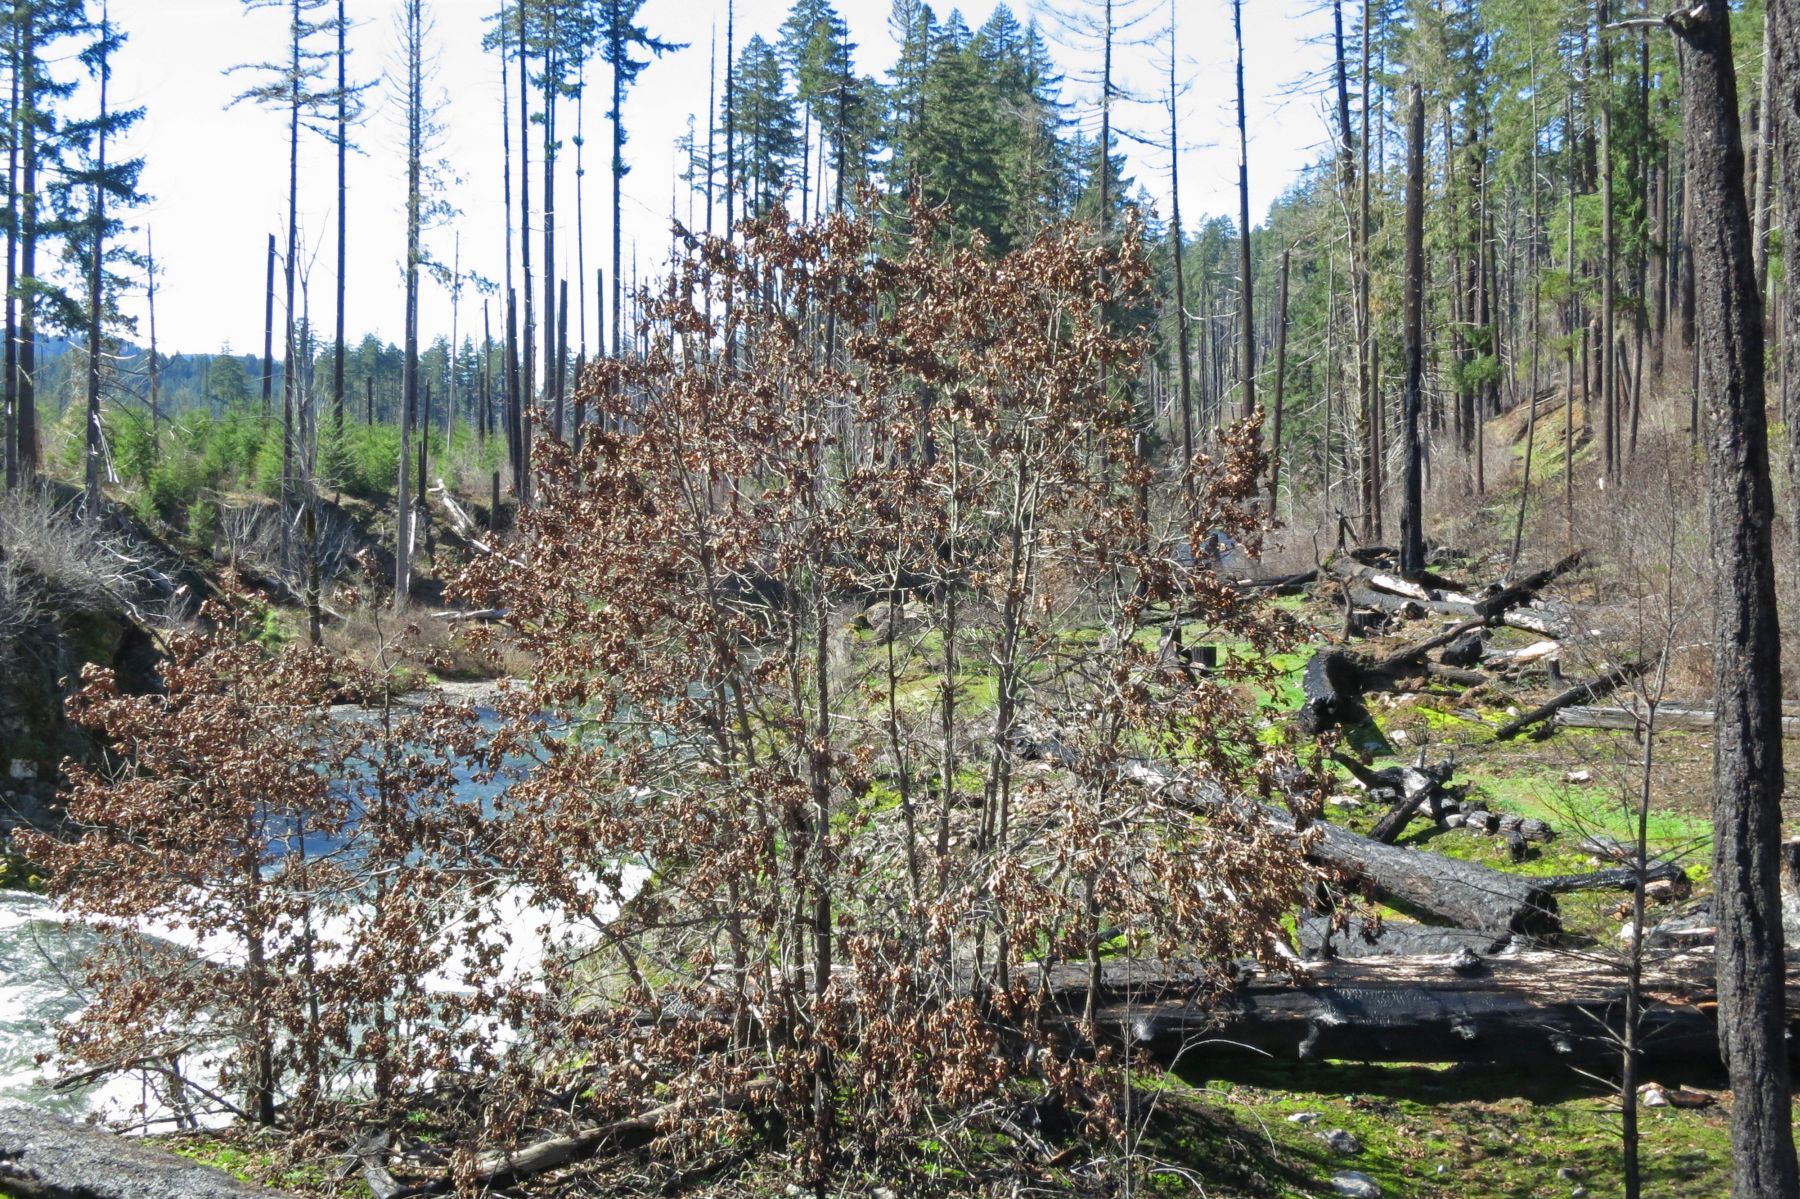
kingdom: Plantae
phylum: Tracheophyta
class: Magnoliopsida
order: Fagales
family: Fagaceae
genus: Quercus
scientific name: Quercus garryana
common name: Garry oak
